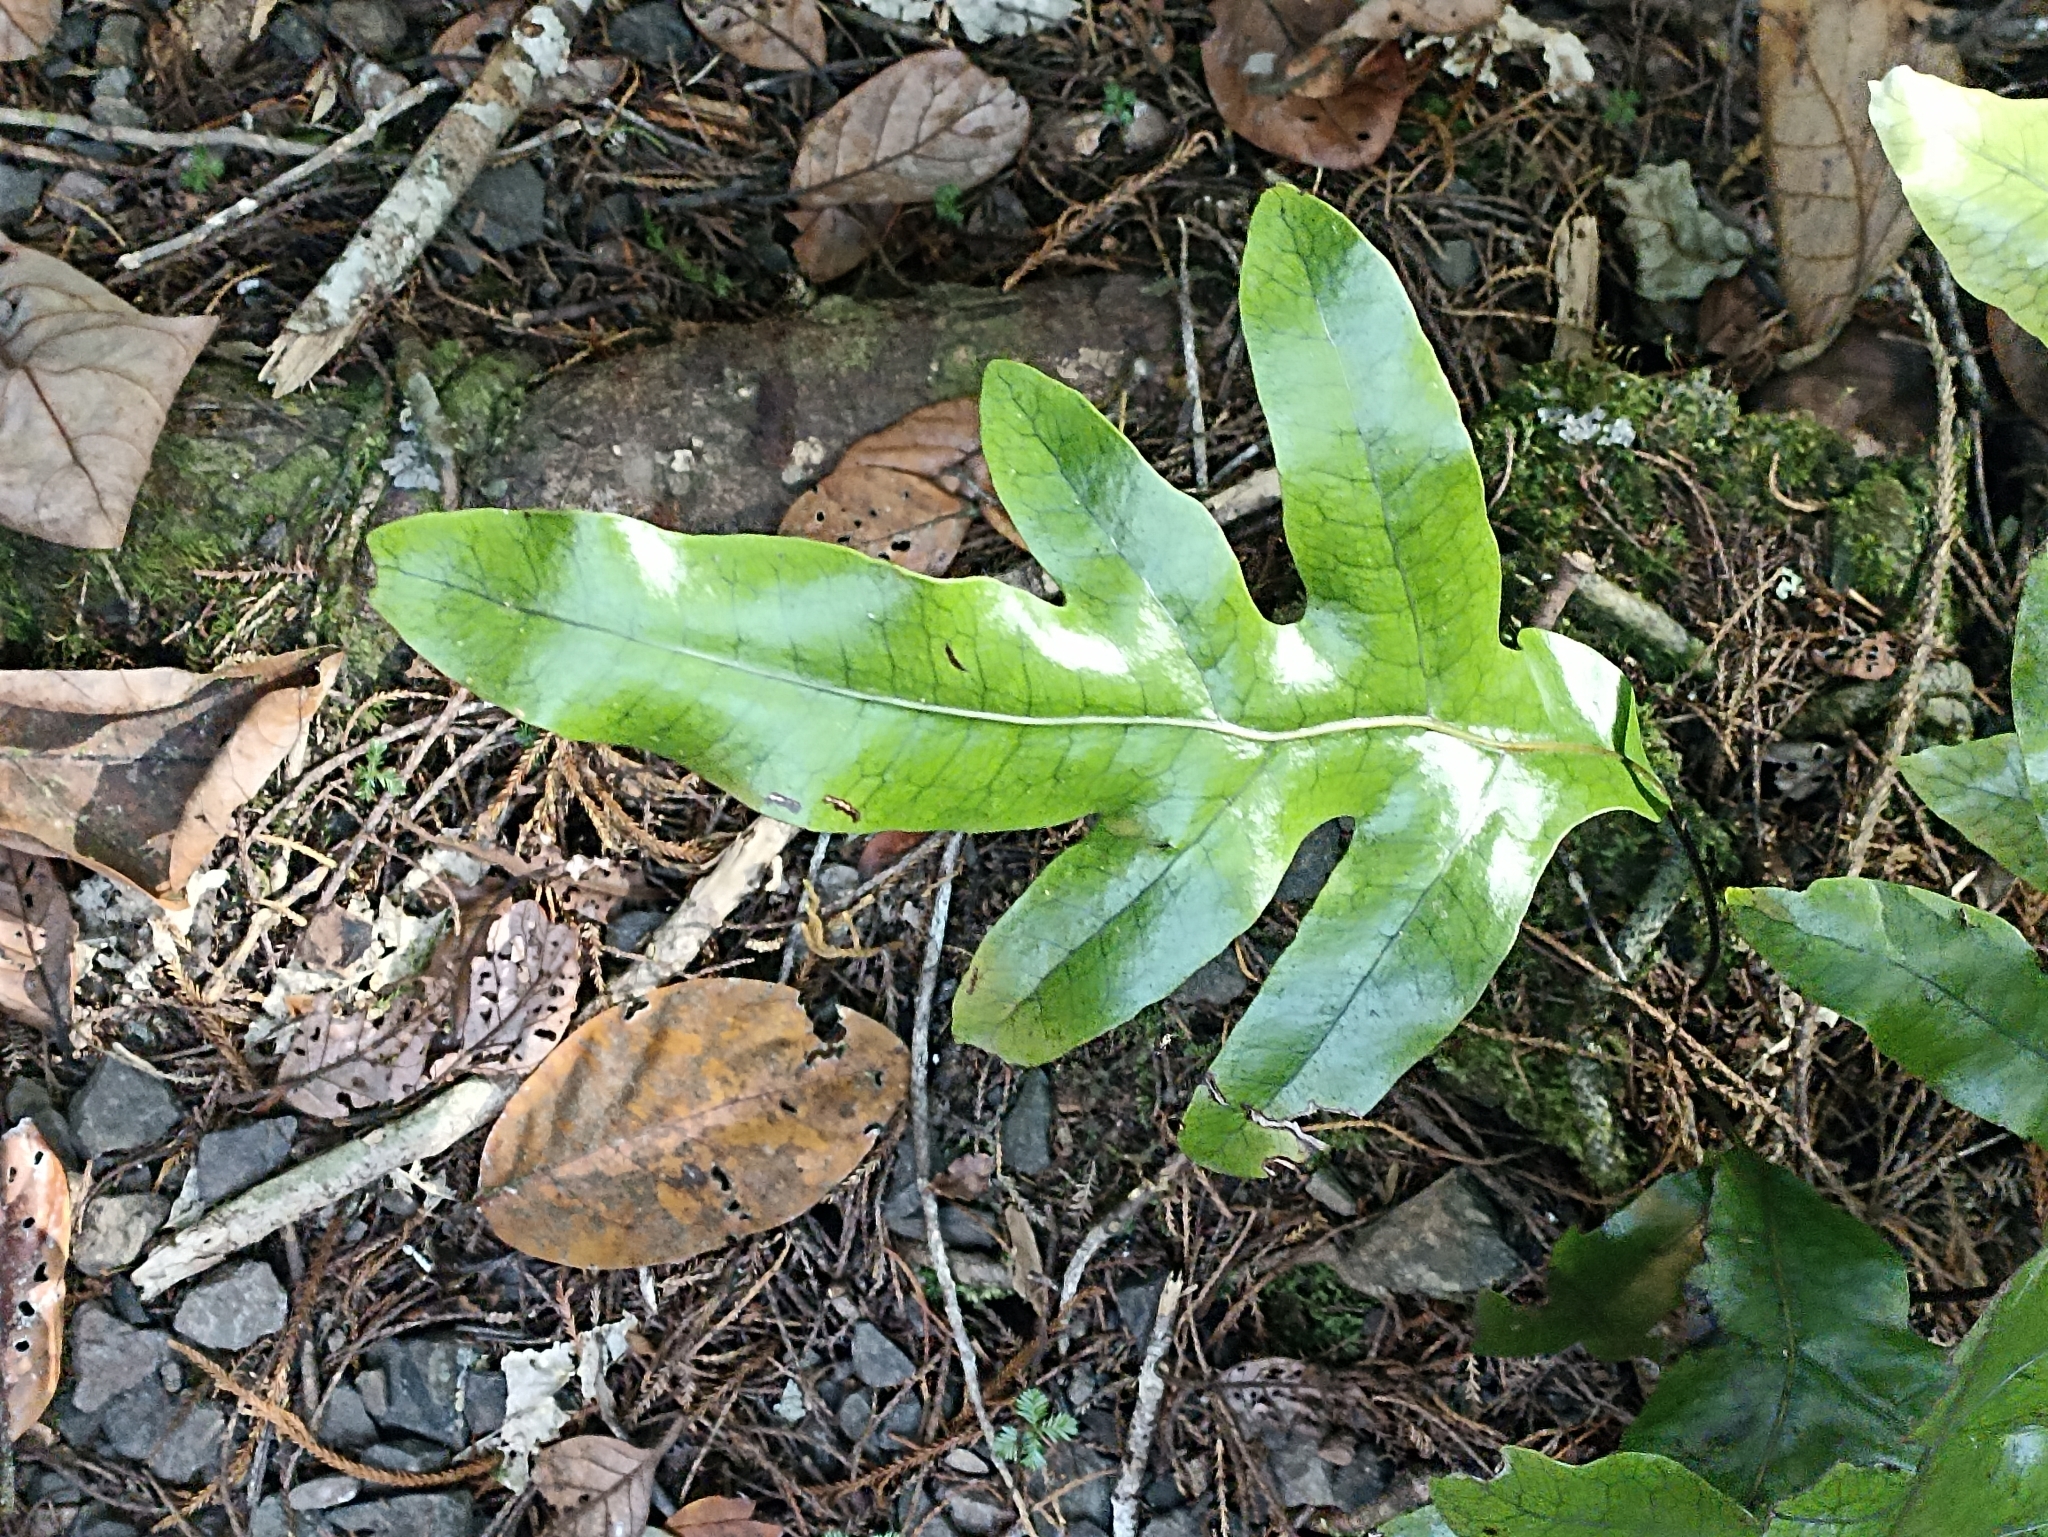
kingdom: Plantae
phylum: Tracheophyta
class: Polypodiopsida
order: Polypodiales
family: Polypodiaceae
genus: Lecanopteris
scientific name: Lecanopteris pustulata
